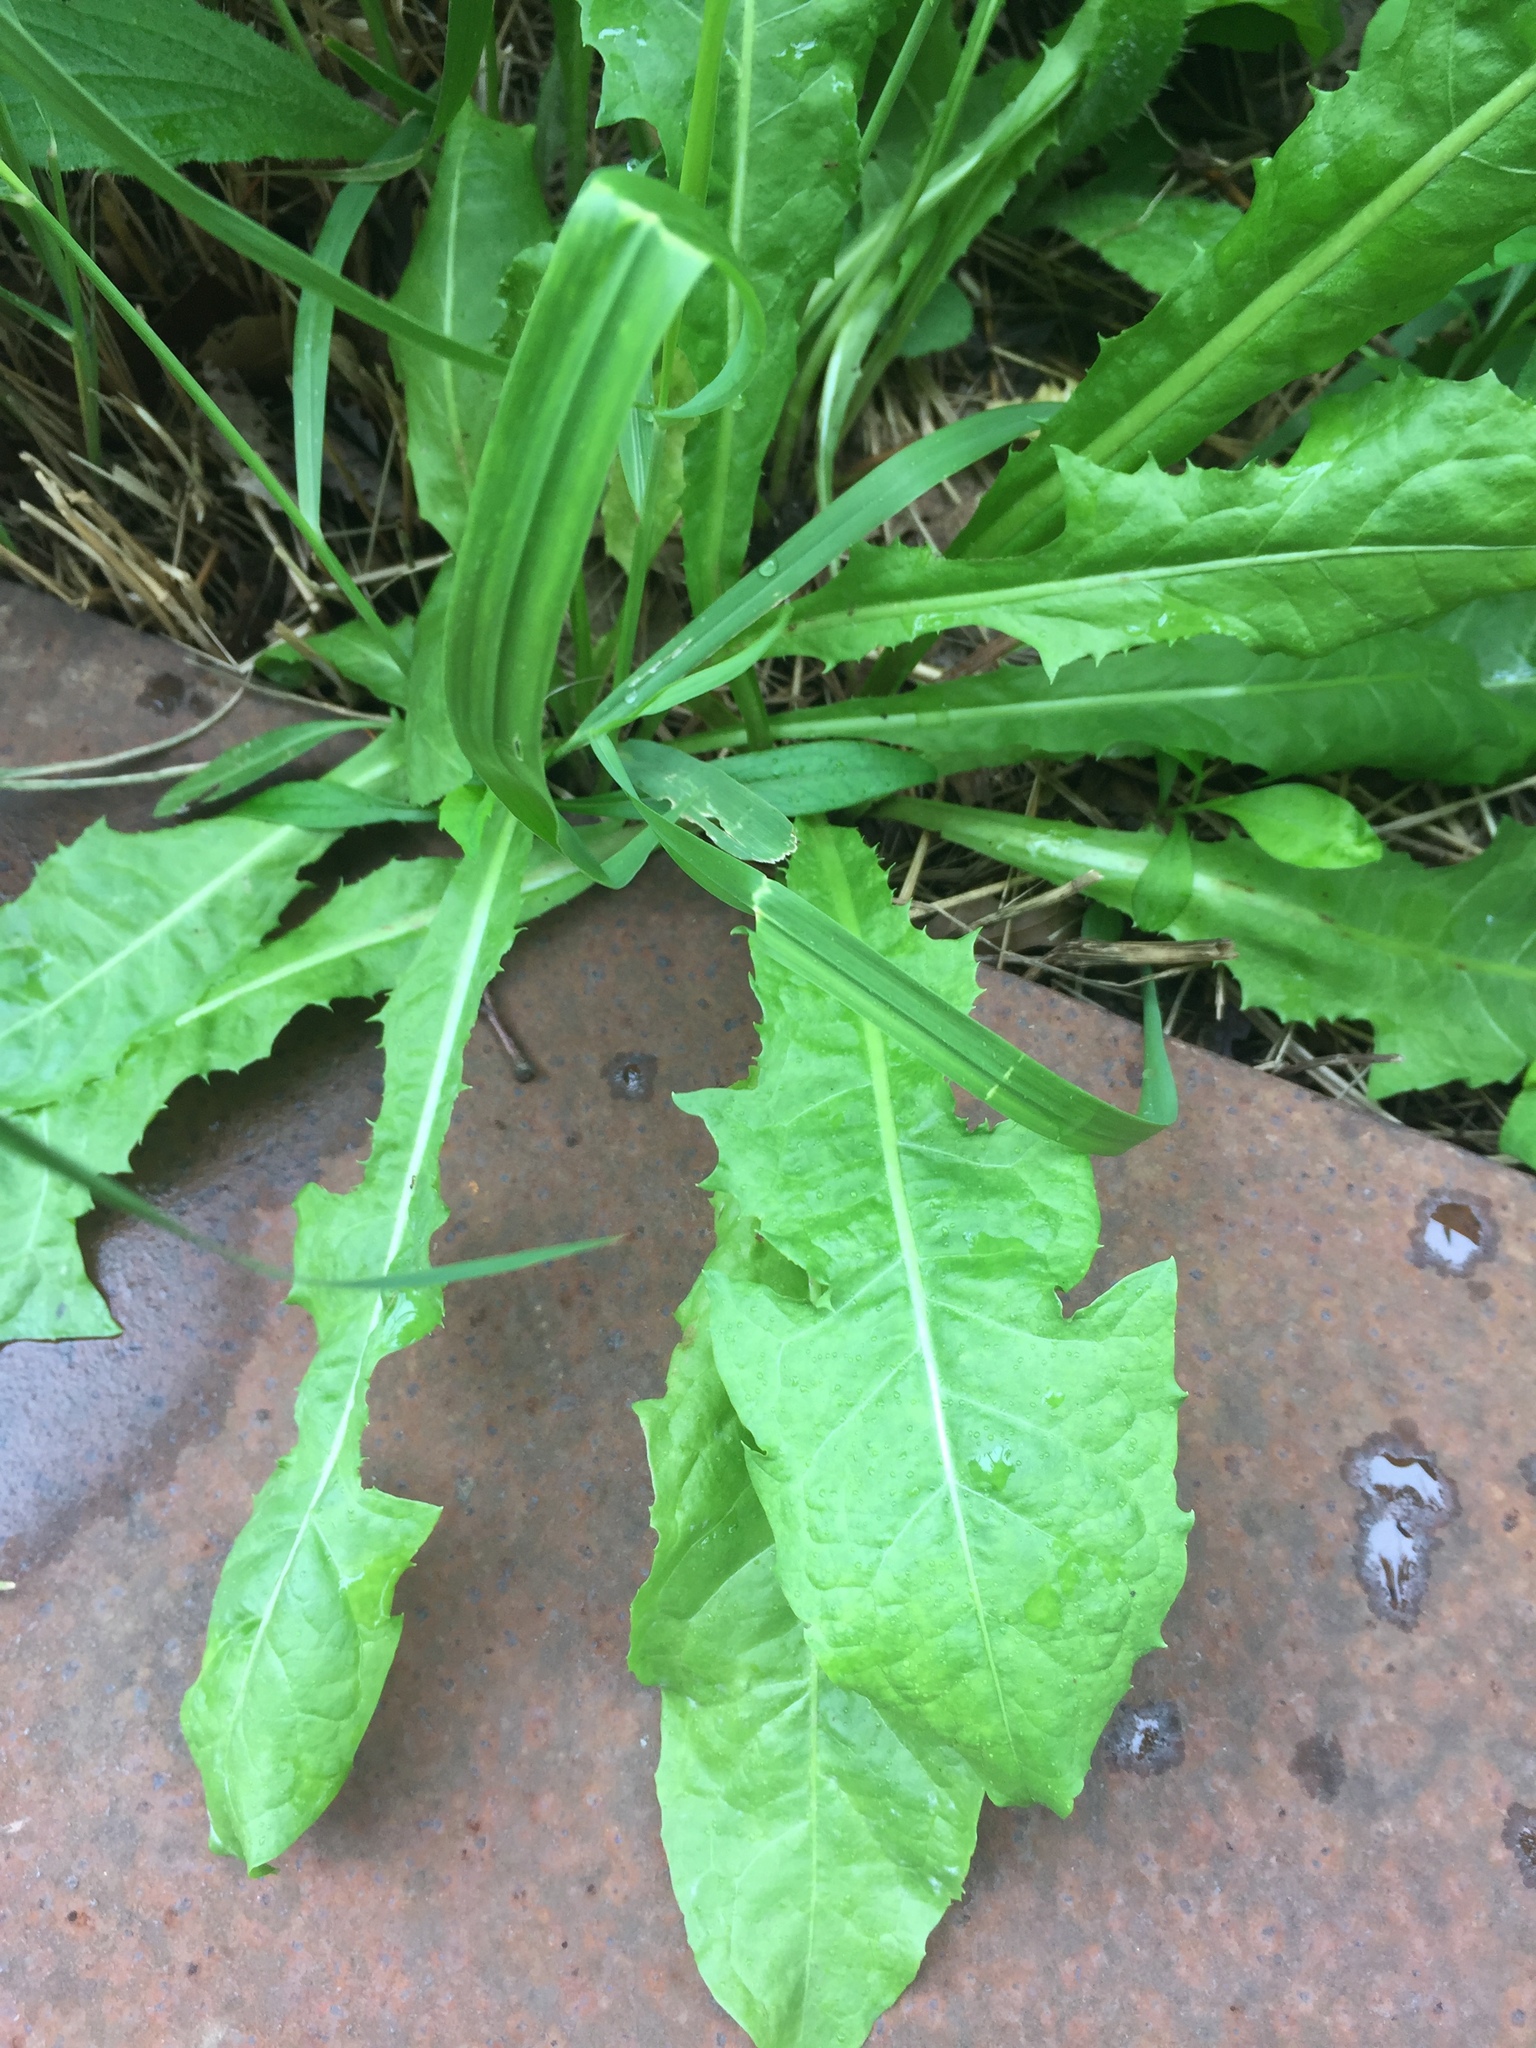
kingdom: Plantae
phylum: Tracheophyta
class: Magnoliopsida
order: Asterales
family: Asteraceae
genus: Taraxacum
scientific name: Taraxacum officinale
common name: Common dandelion
